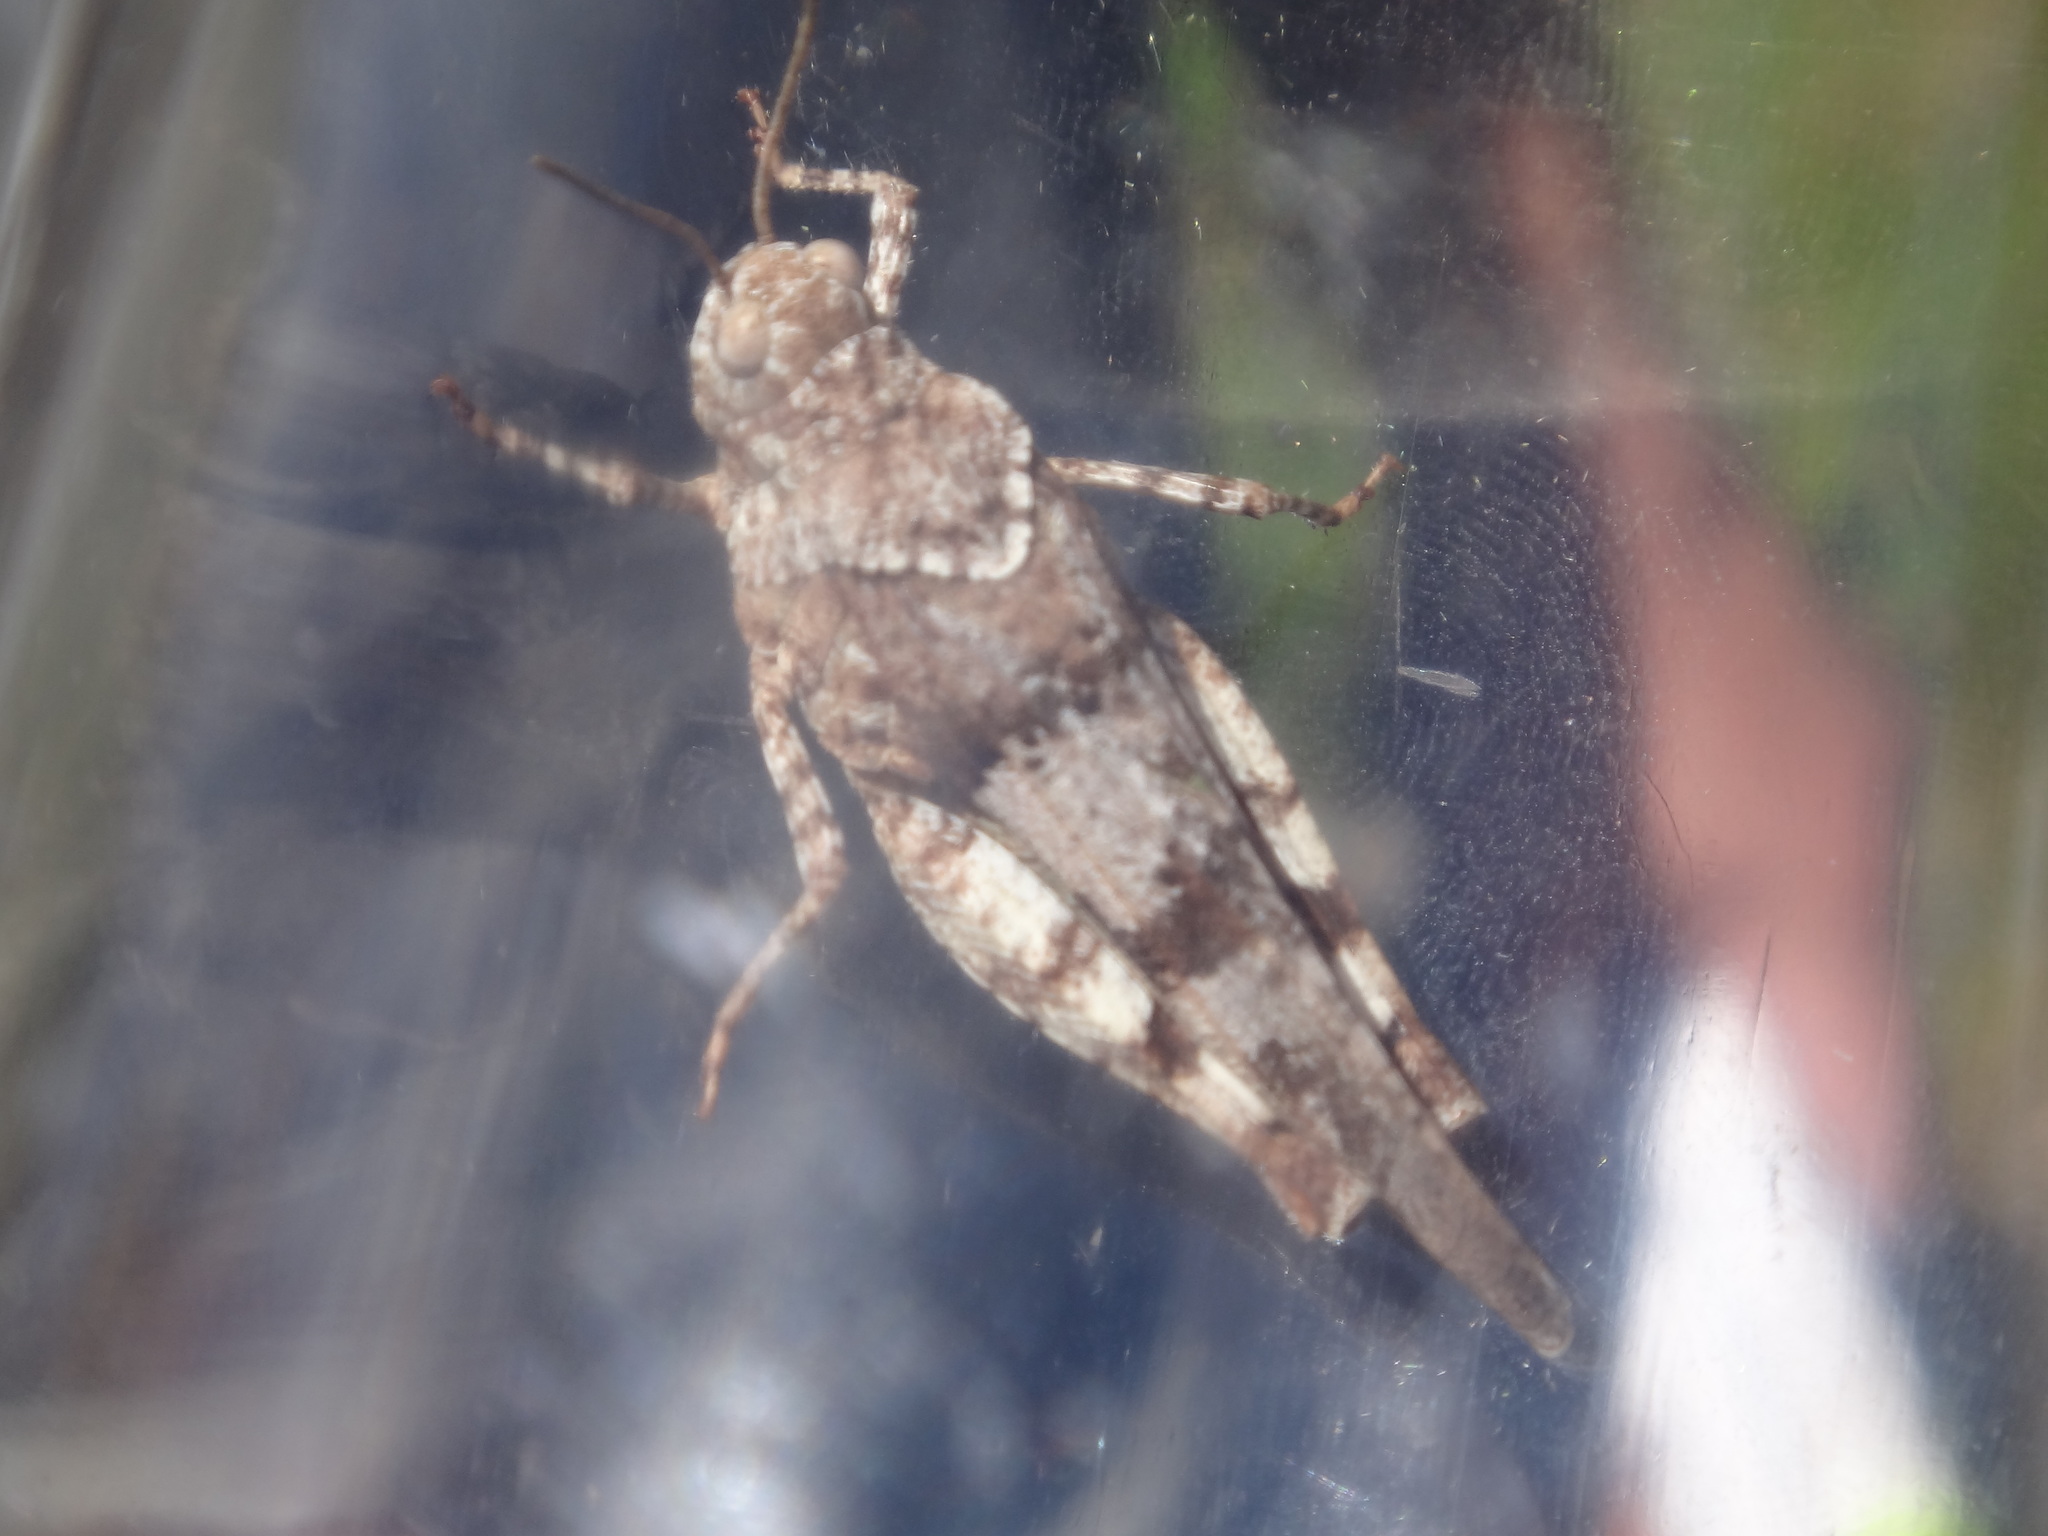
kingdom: Animalia
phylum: Arthropoda
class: Insecta
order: Orthoptera
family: Acrididae
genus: Oedipoda
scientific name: Oedipoda caerulescens
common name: Blue-winged grasshopper
